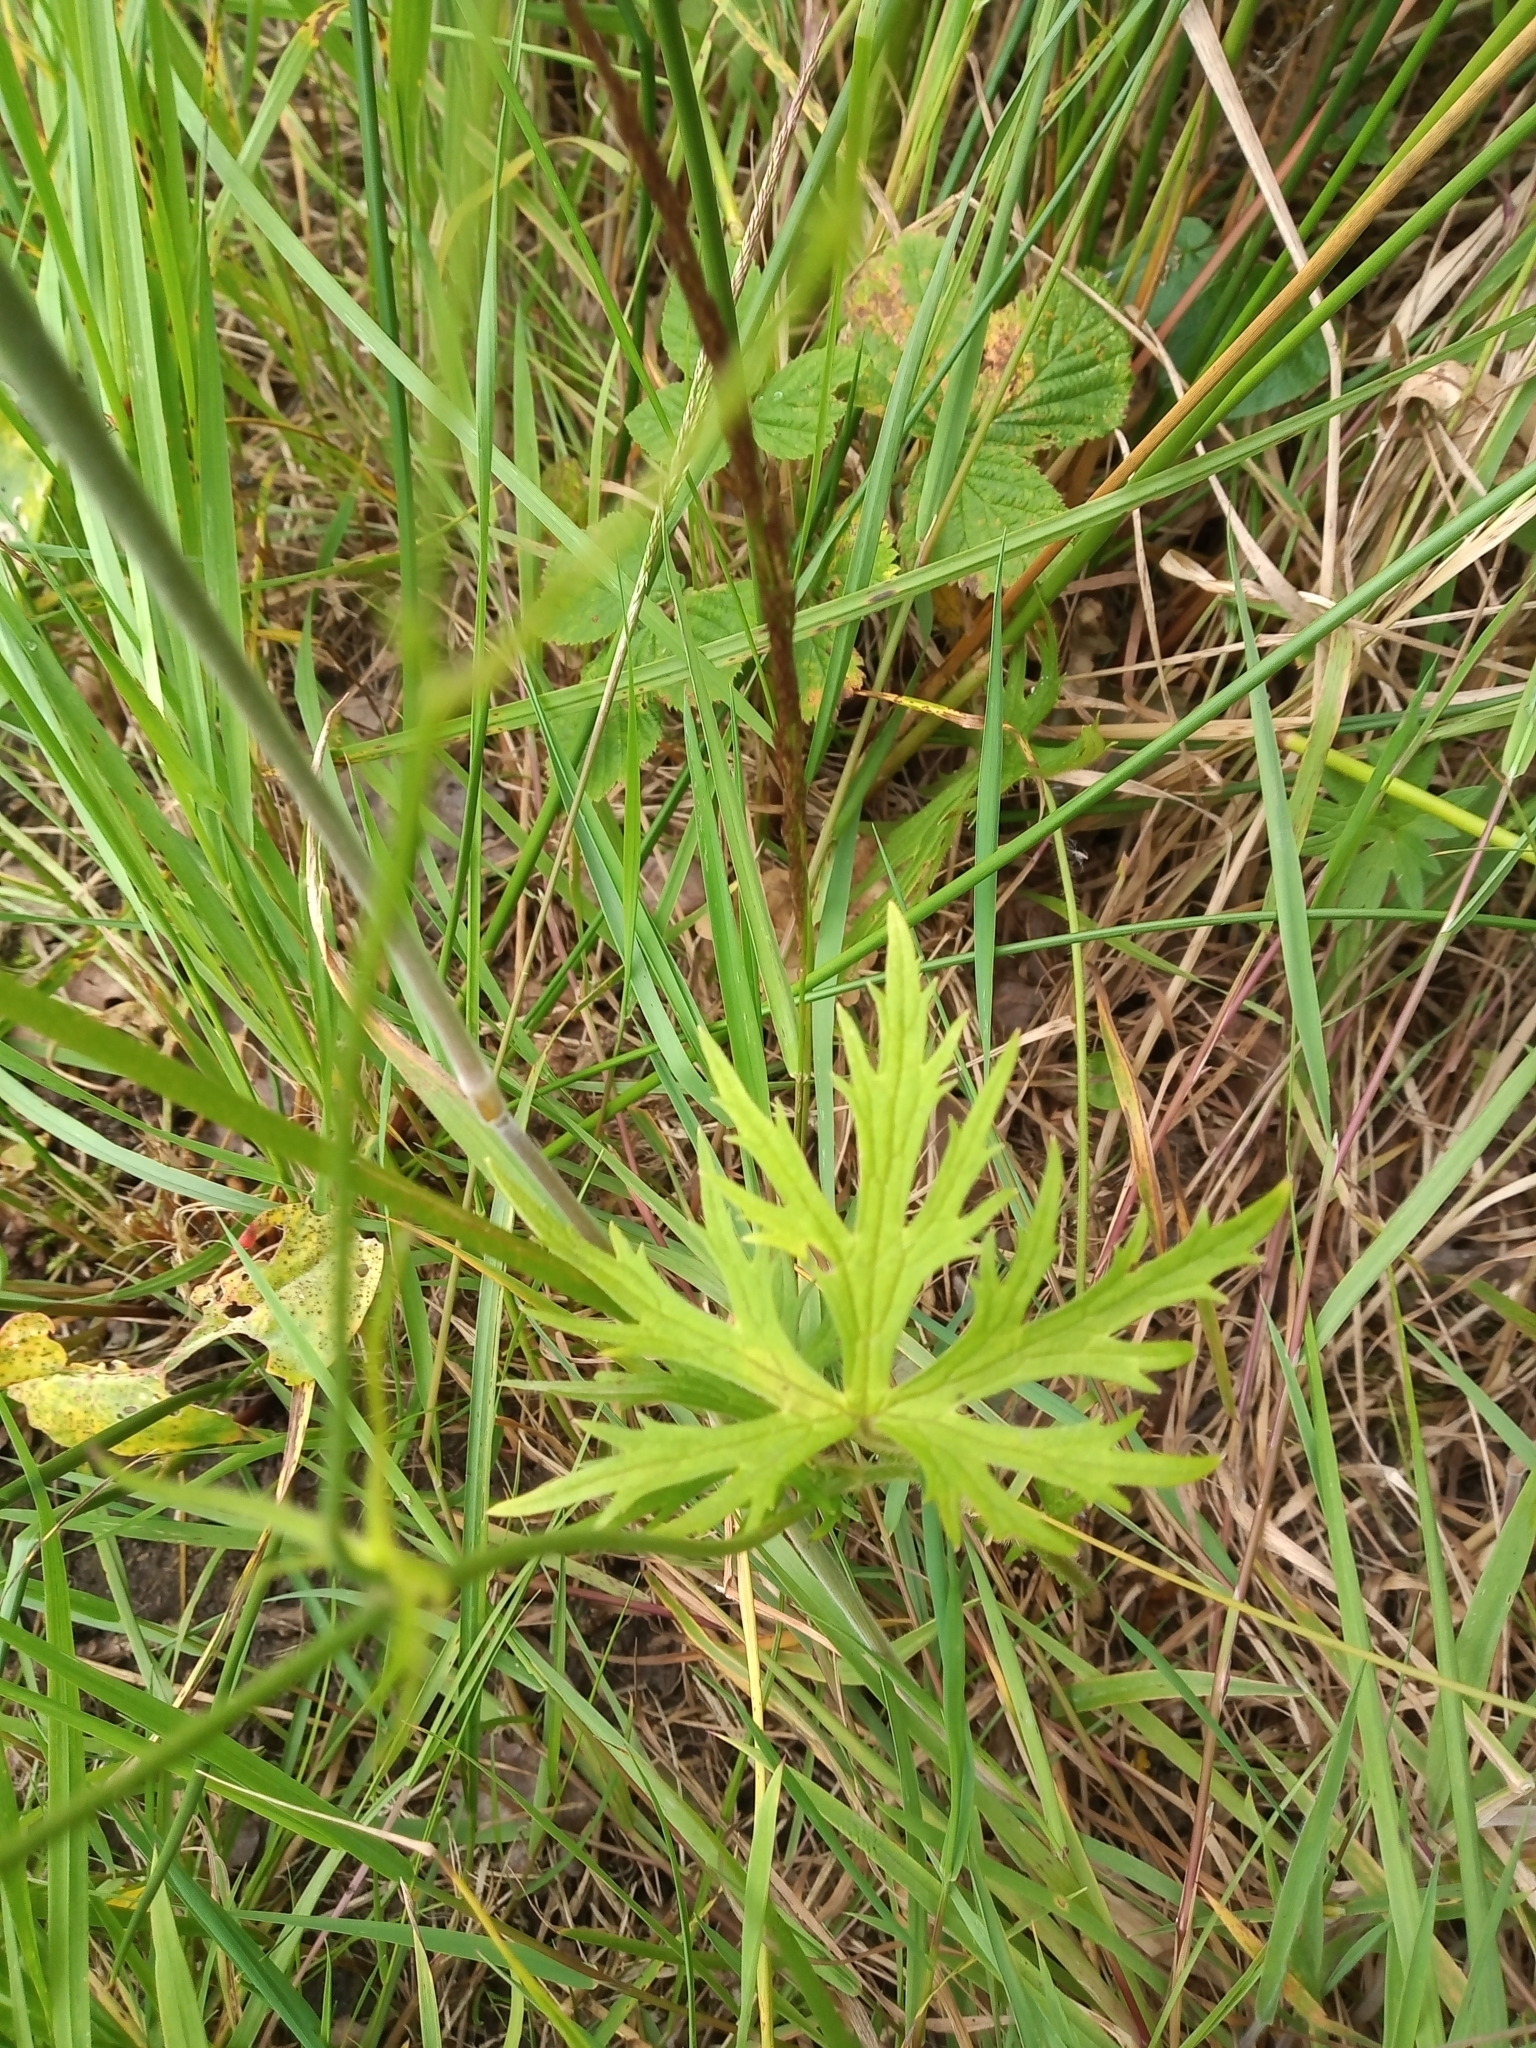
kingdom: Plantae
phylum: Tracheophyta
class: Magnoliopsida
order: Ranunculales
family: Ranunculaceae
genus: Ranunculus
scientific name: Ranunculus acris
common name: Meadow buttercup
